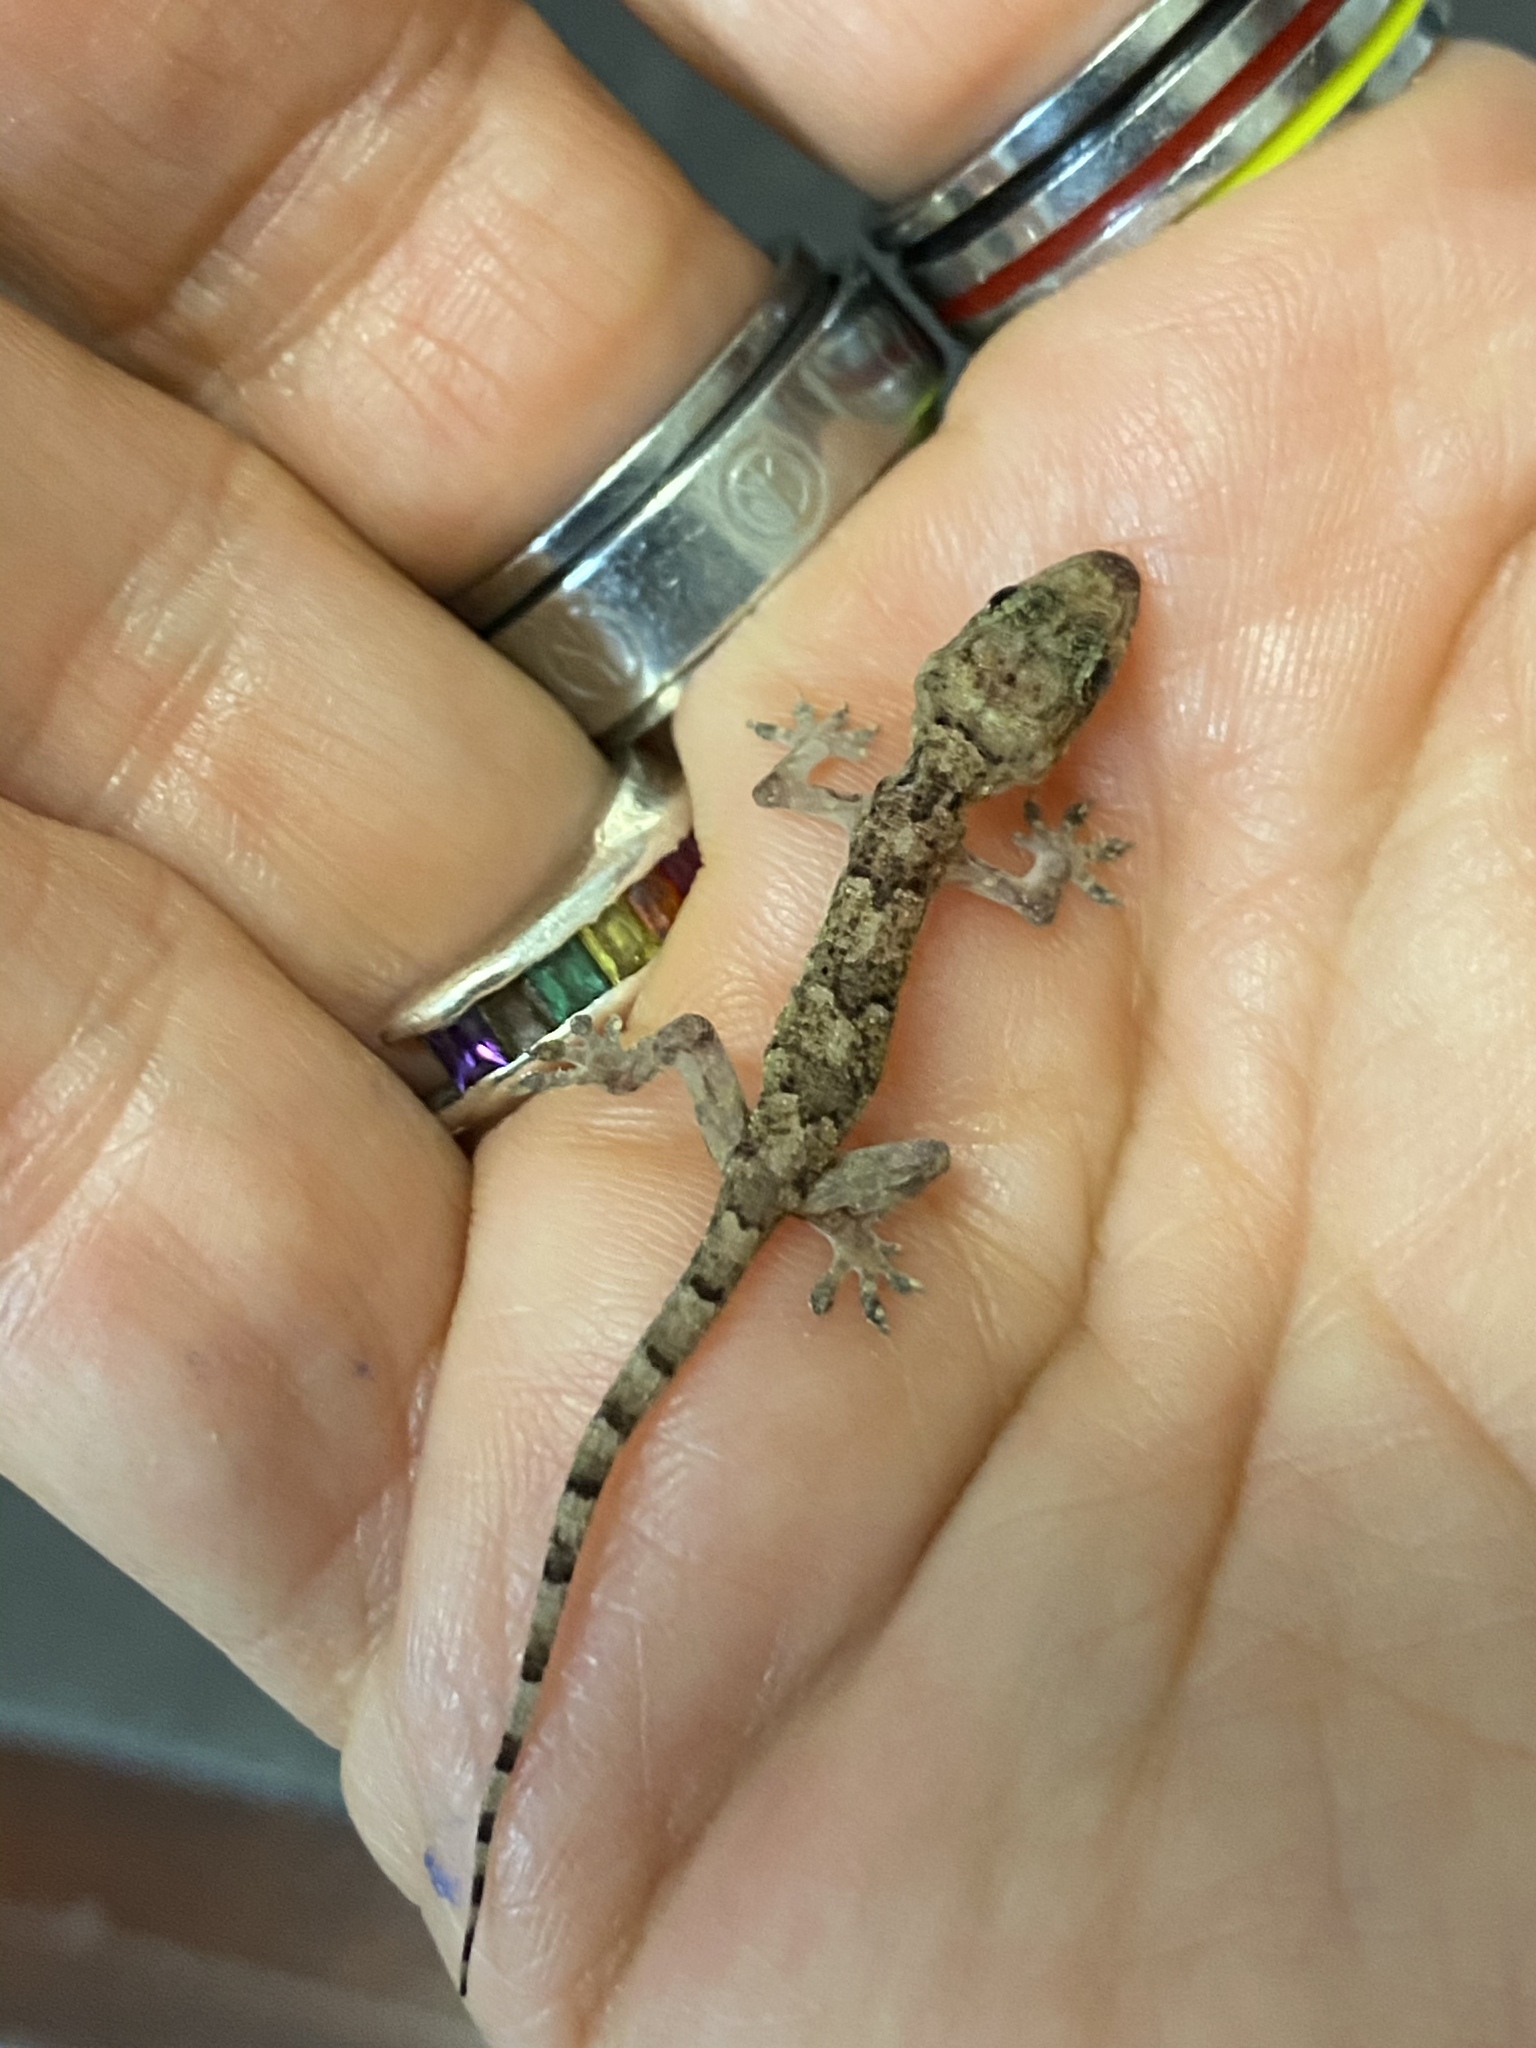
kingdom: Animalia
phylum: Chordata
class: Squamata
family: Gekkonidae
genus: Hemidactylus
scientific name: Hemidactylus mabouia
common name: House gecko
